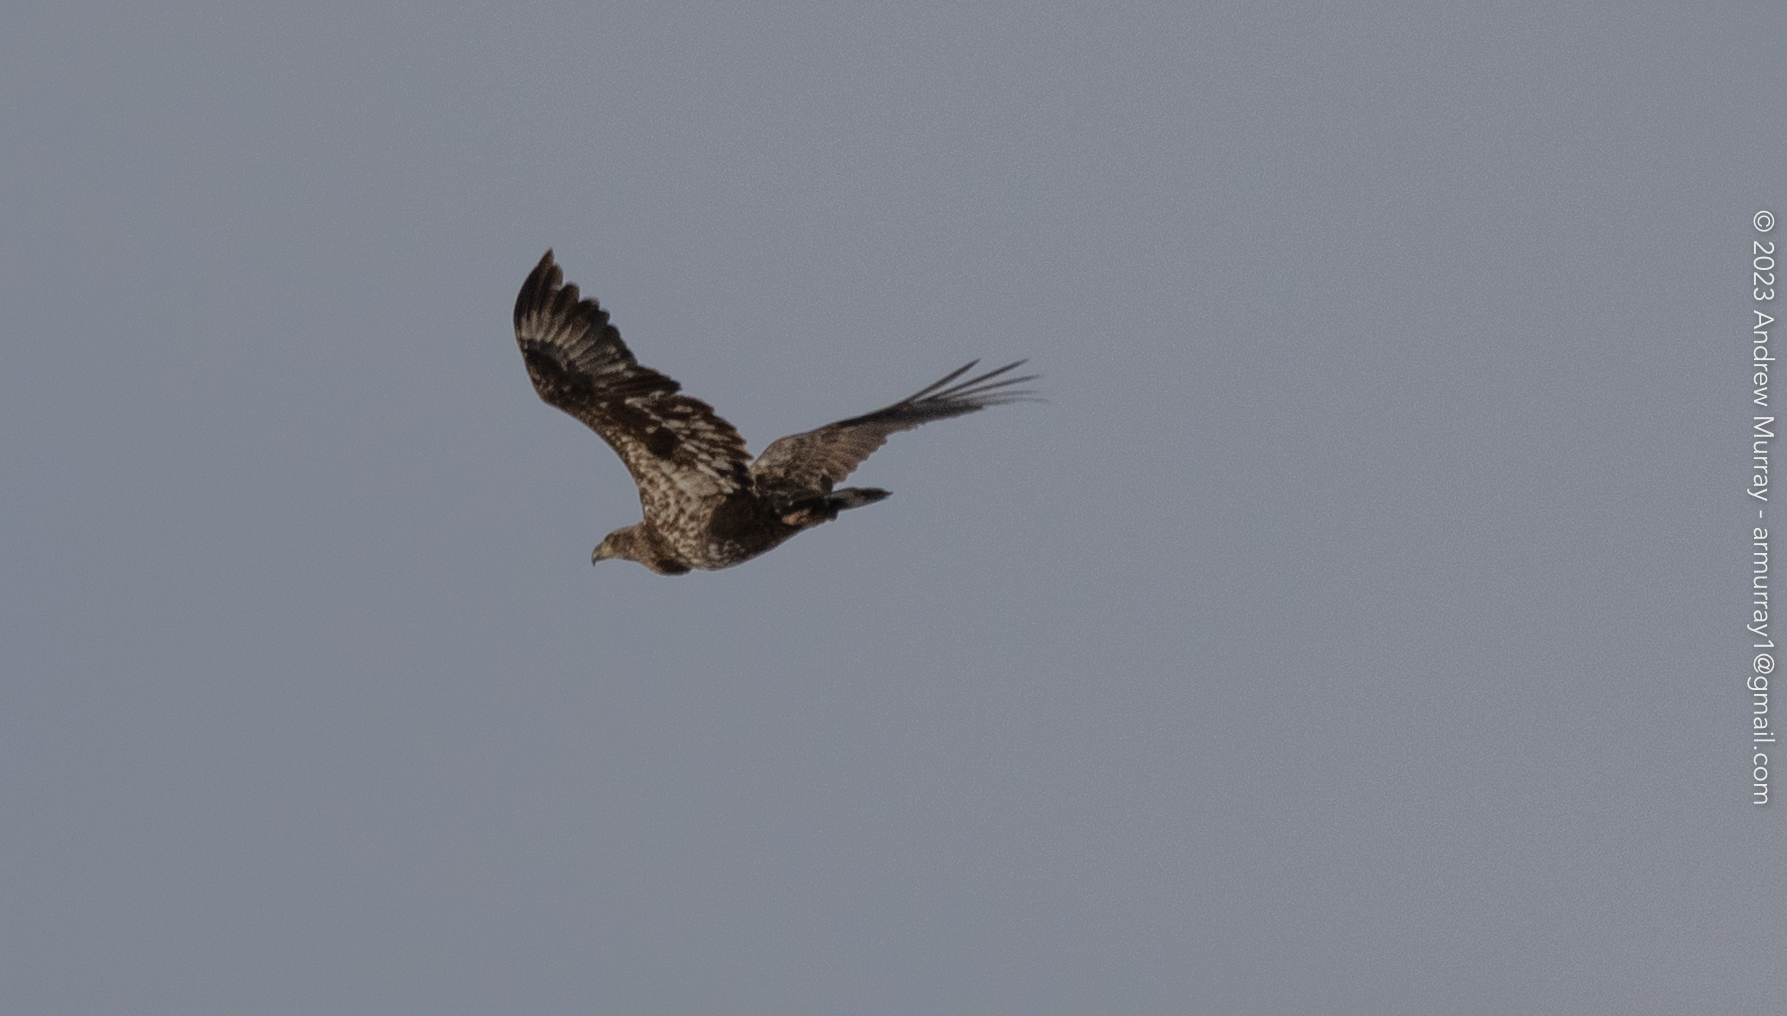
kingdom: Animalia
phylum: Chordata
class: Aves
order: Accipitriformes
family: Accipitridae
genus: Haliaeetus
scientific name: Haliaeetus leucocephalus
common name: Bald eagle
